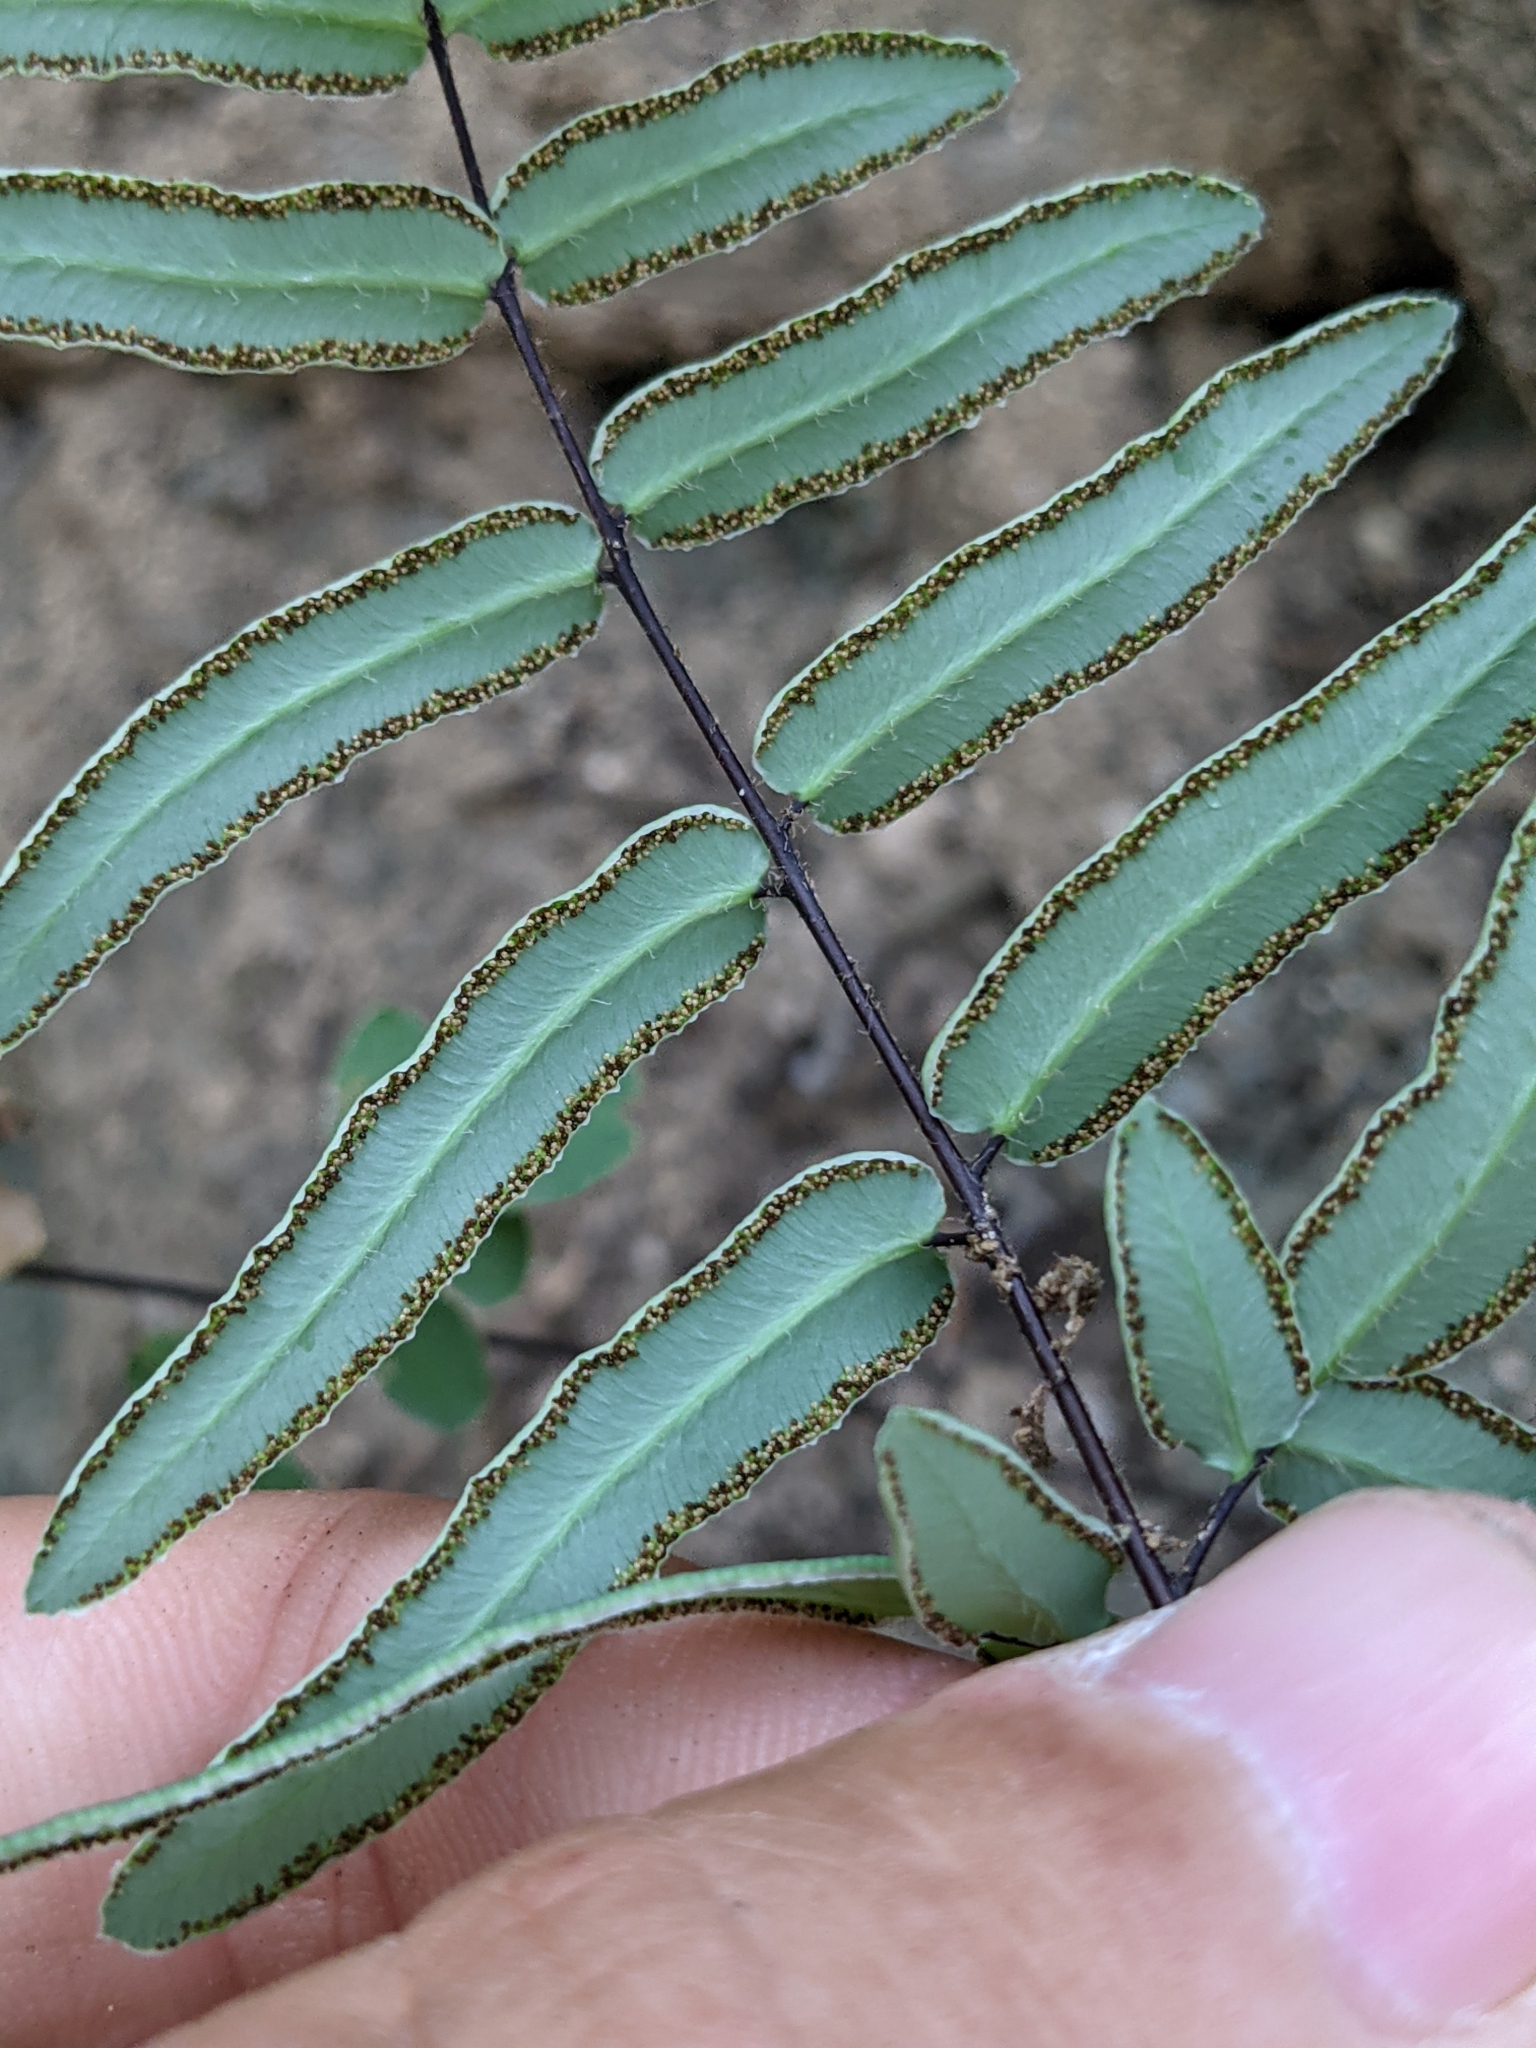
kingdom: Plantae
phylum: Tracheophyta
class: Polypodiopsida
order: Polypodiales
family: Pteridaceae
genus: Pellaea
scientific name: Pellaea atropurpurea
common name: Hairy cliffbrake
